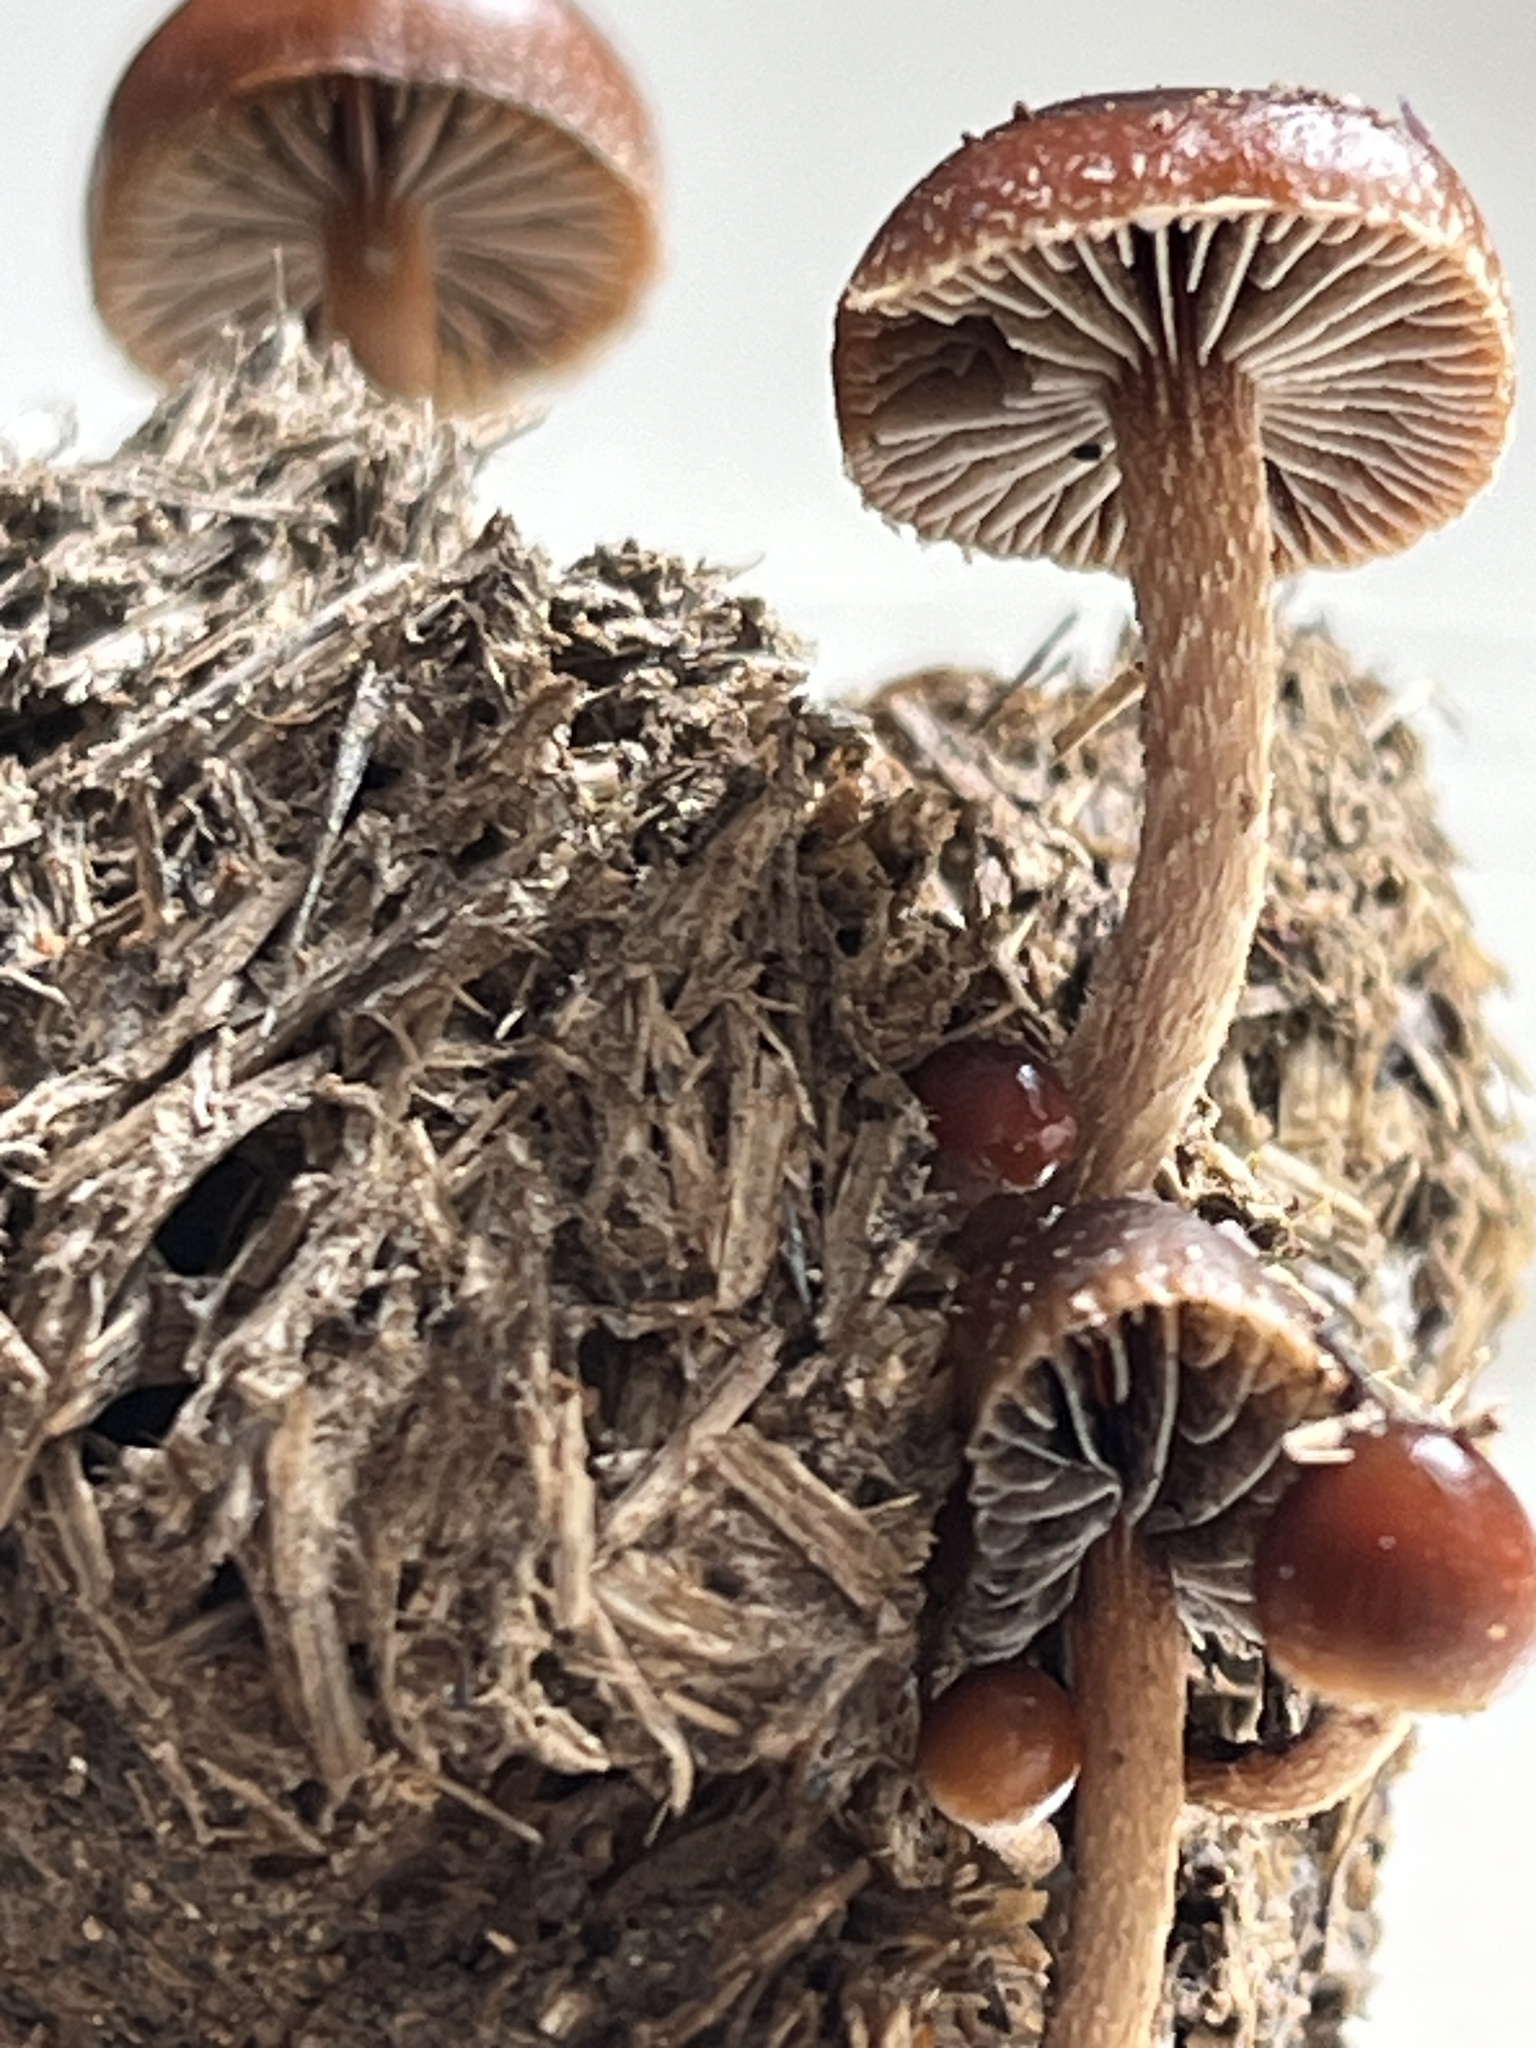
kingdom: Fungi
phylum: Basidiomycota
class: Agaricomycetes
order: Agaricales
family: Strophariaceae
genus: Deconica
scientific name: Deconica coprophila
